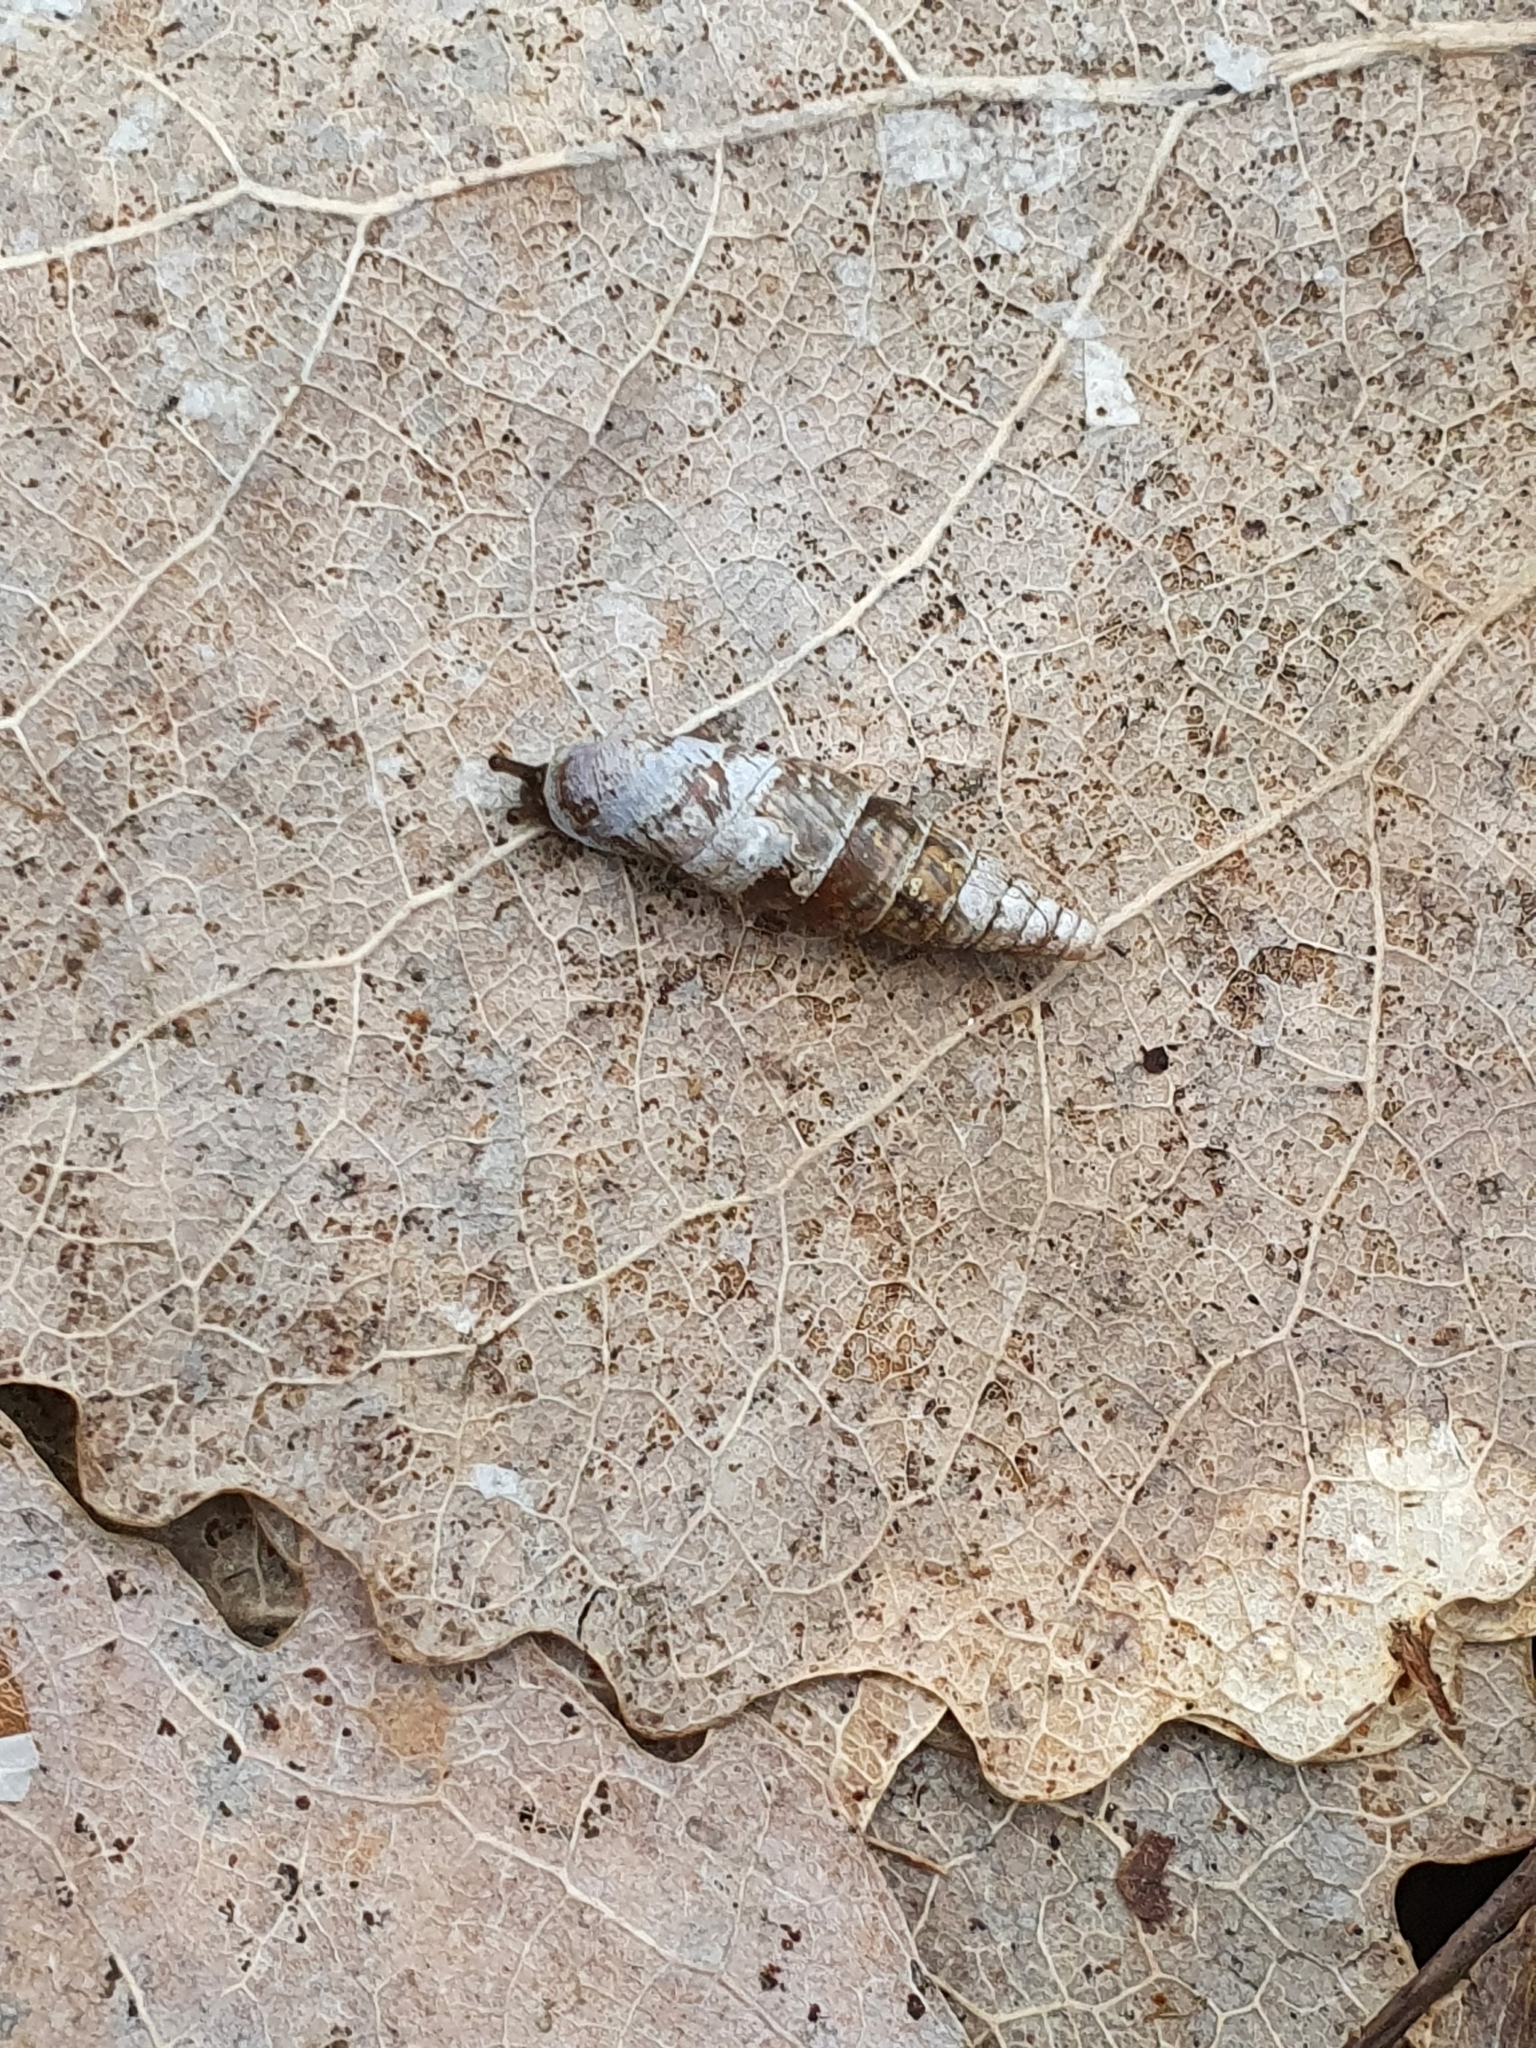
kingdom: Animalia
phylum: Mollusca
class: Gastropoda
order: Stylommatophora
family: Clausiliidae
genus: Cochlodina
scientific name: Cochlodina laminata
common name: Plaited door snail
